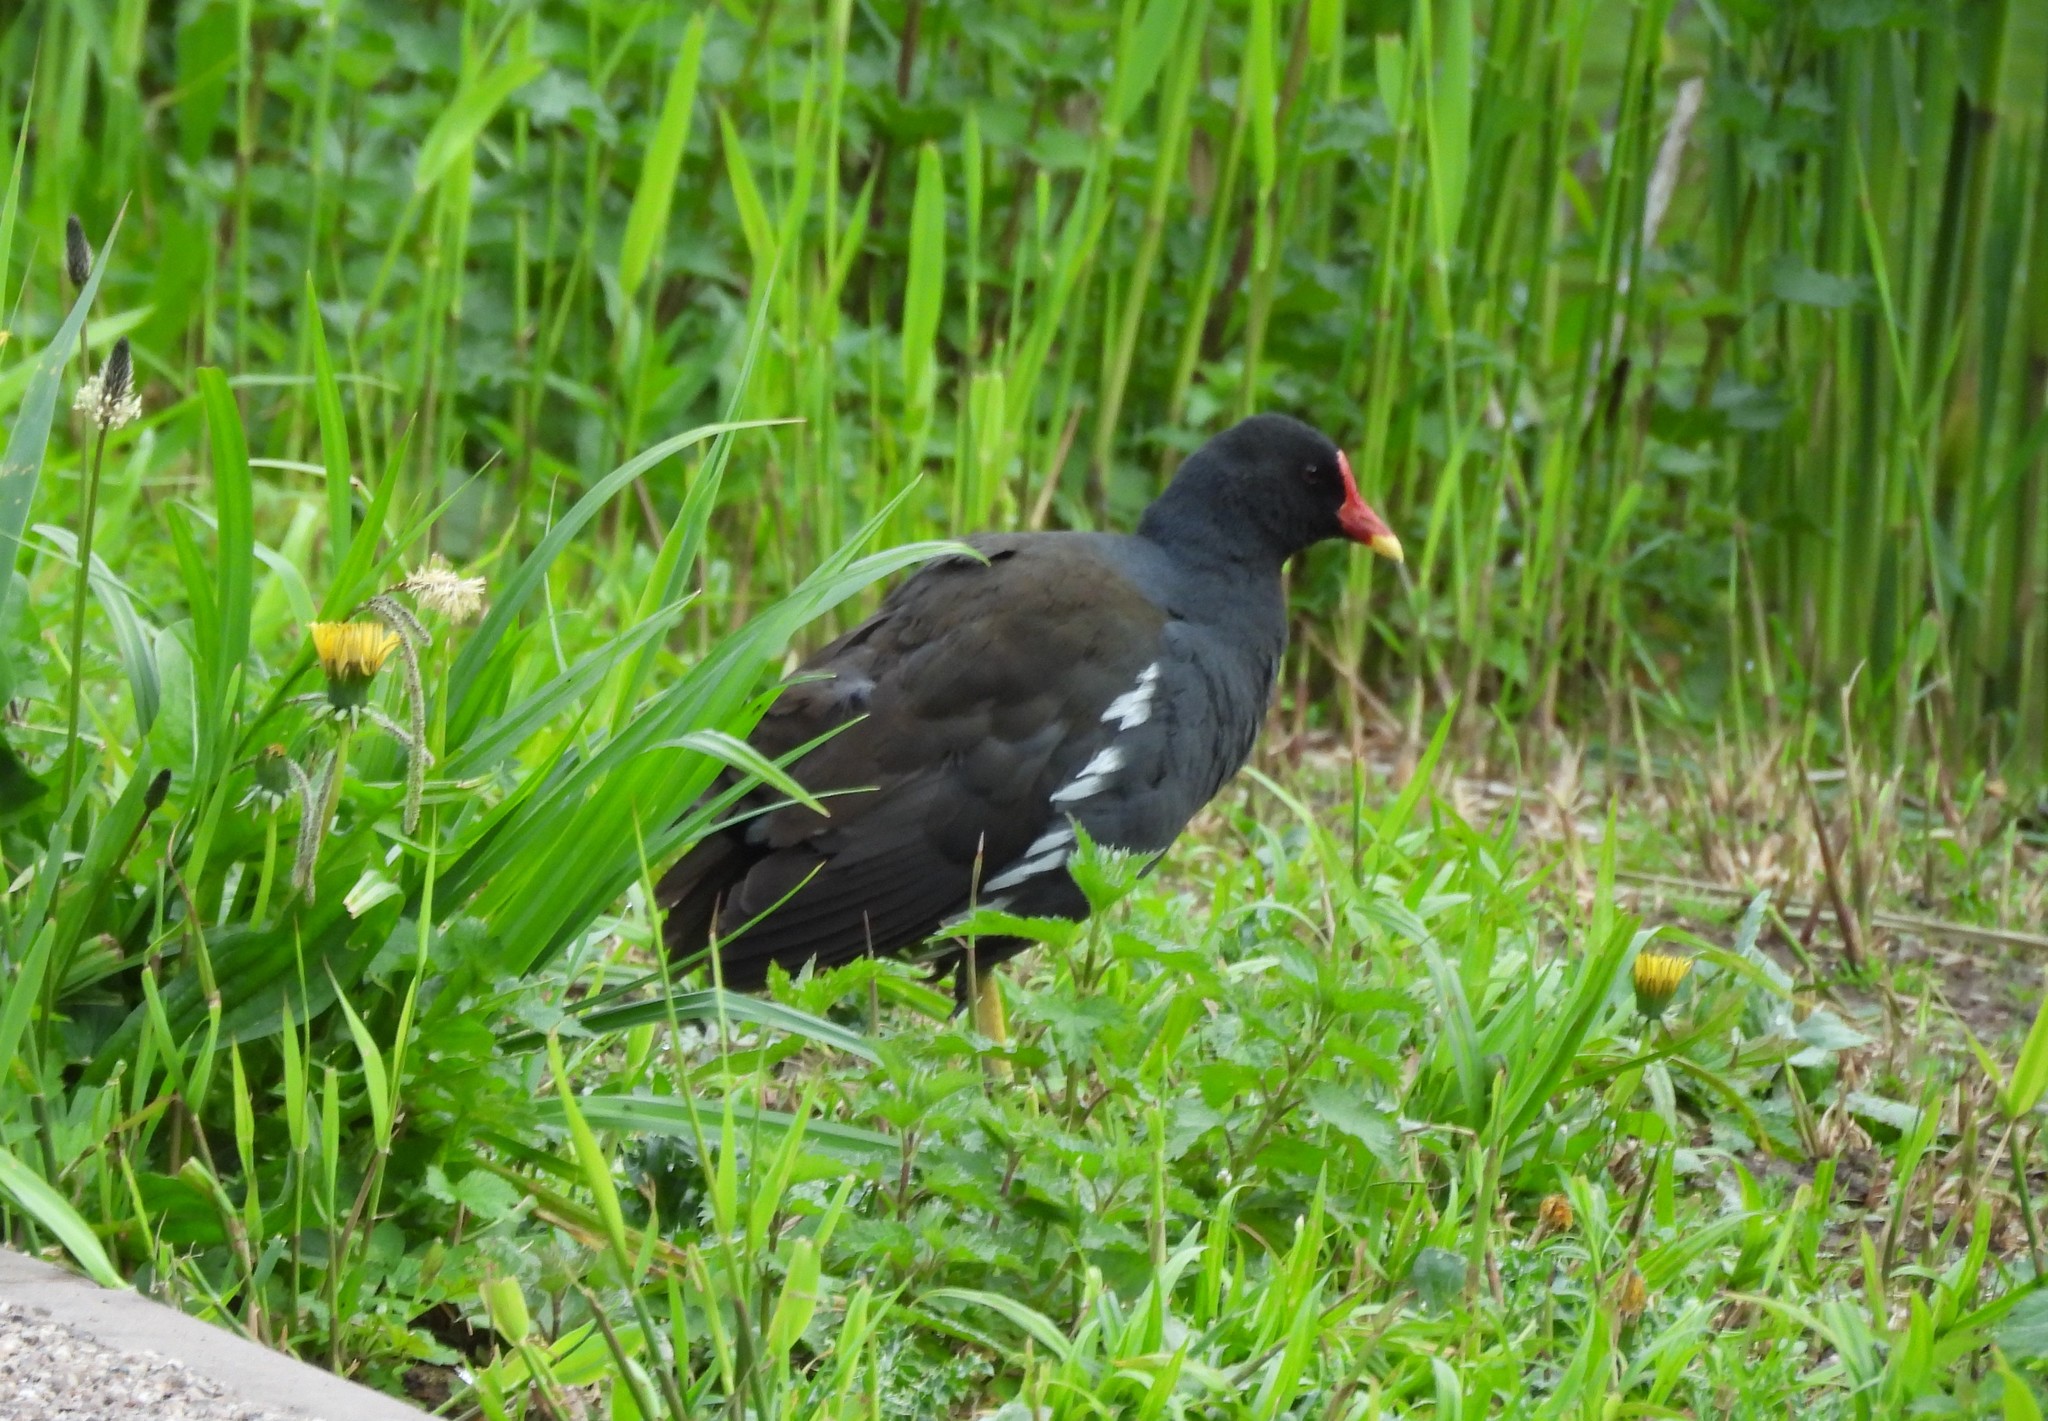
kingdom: Animalia
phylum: Chordata
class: Aves
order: Gruiformes
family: Rallidae
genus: Gallinula
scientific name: Gallinula chloropus
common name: Common moorhen
